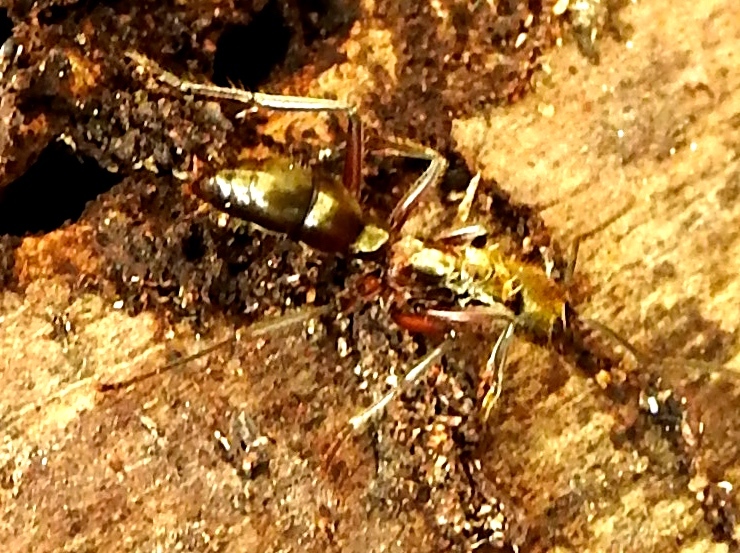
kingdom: Animalia
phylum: Arthropoda
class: Insecta
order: Hymenoptera
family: Formicidae
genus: Pachycondyla
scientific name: Pachycondyla villosa
